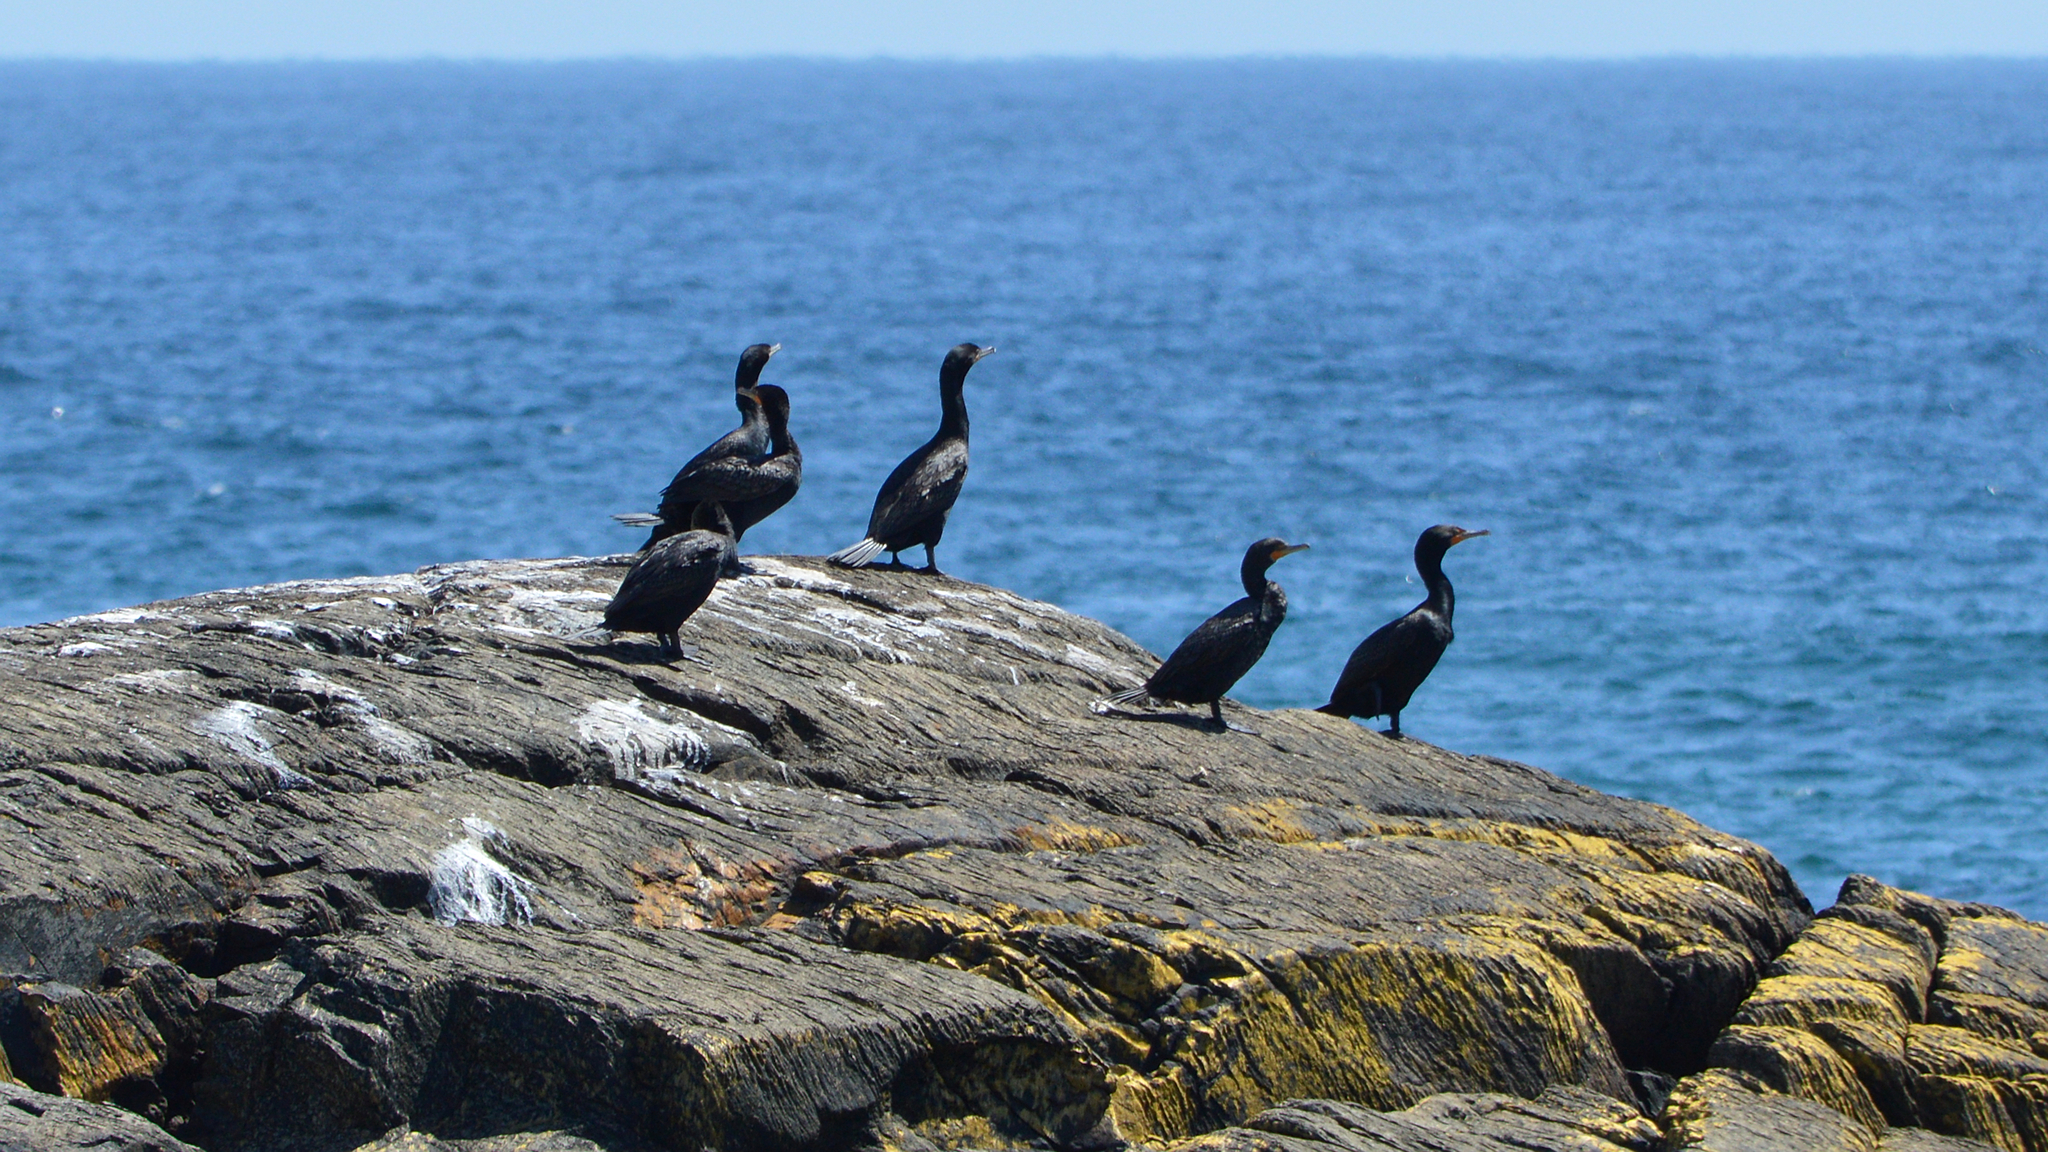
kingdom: Animalia
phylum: Chordata
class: Aves
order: Suliformes
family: Phalacrocoracidae
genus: Phalacrocorax
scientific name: Phalacrocorax auritus
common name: Double-crested cormorant
